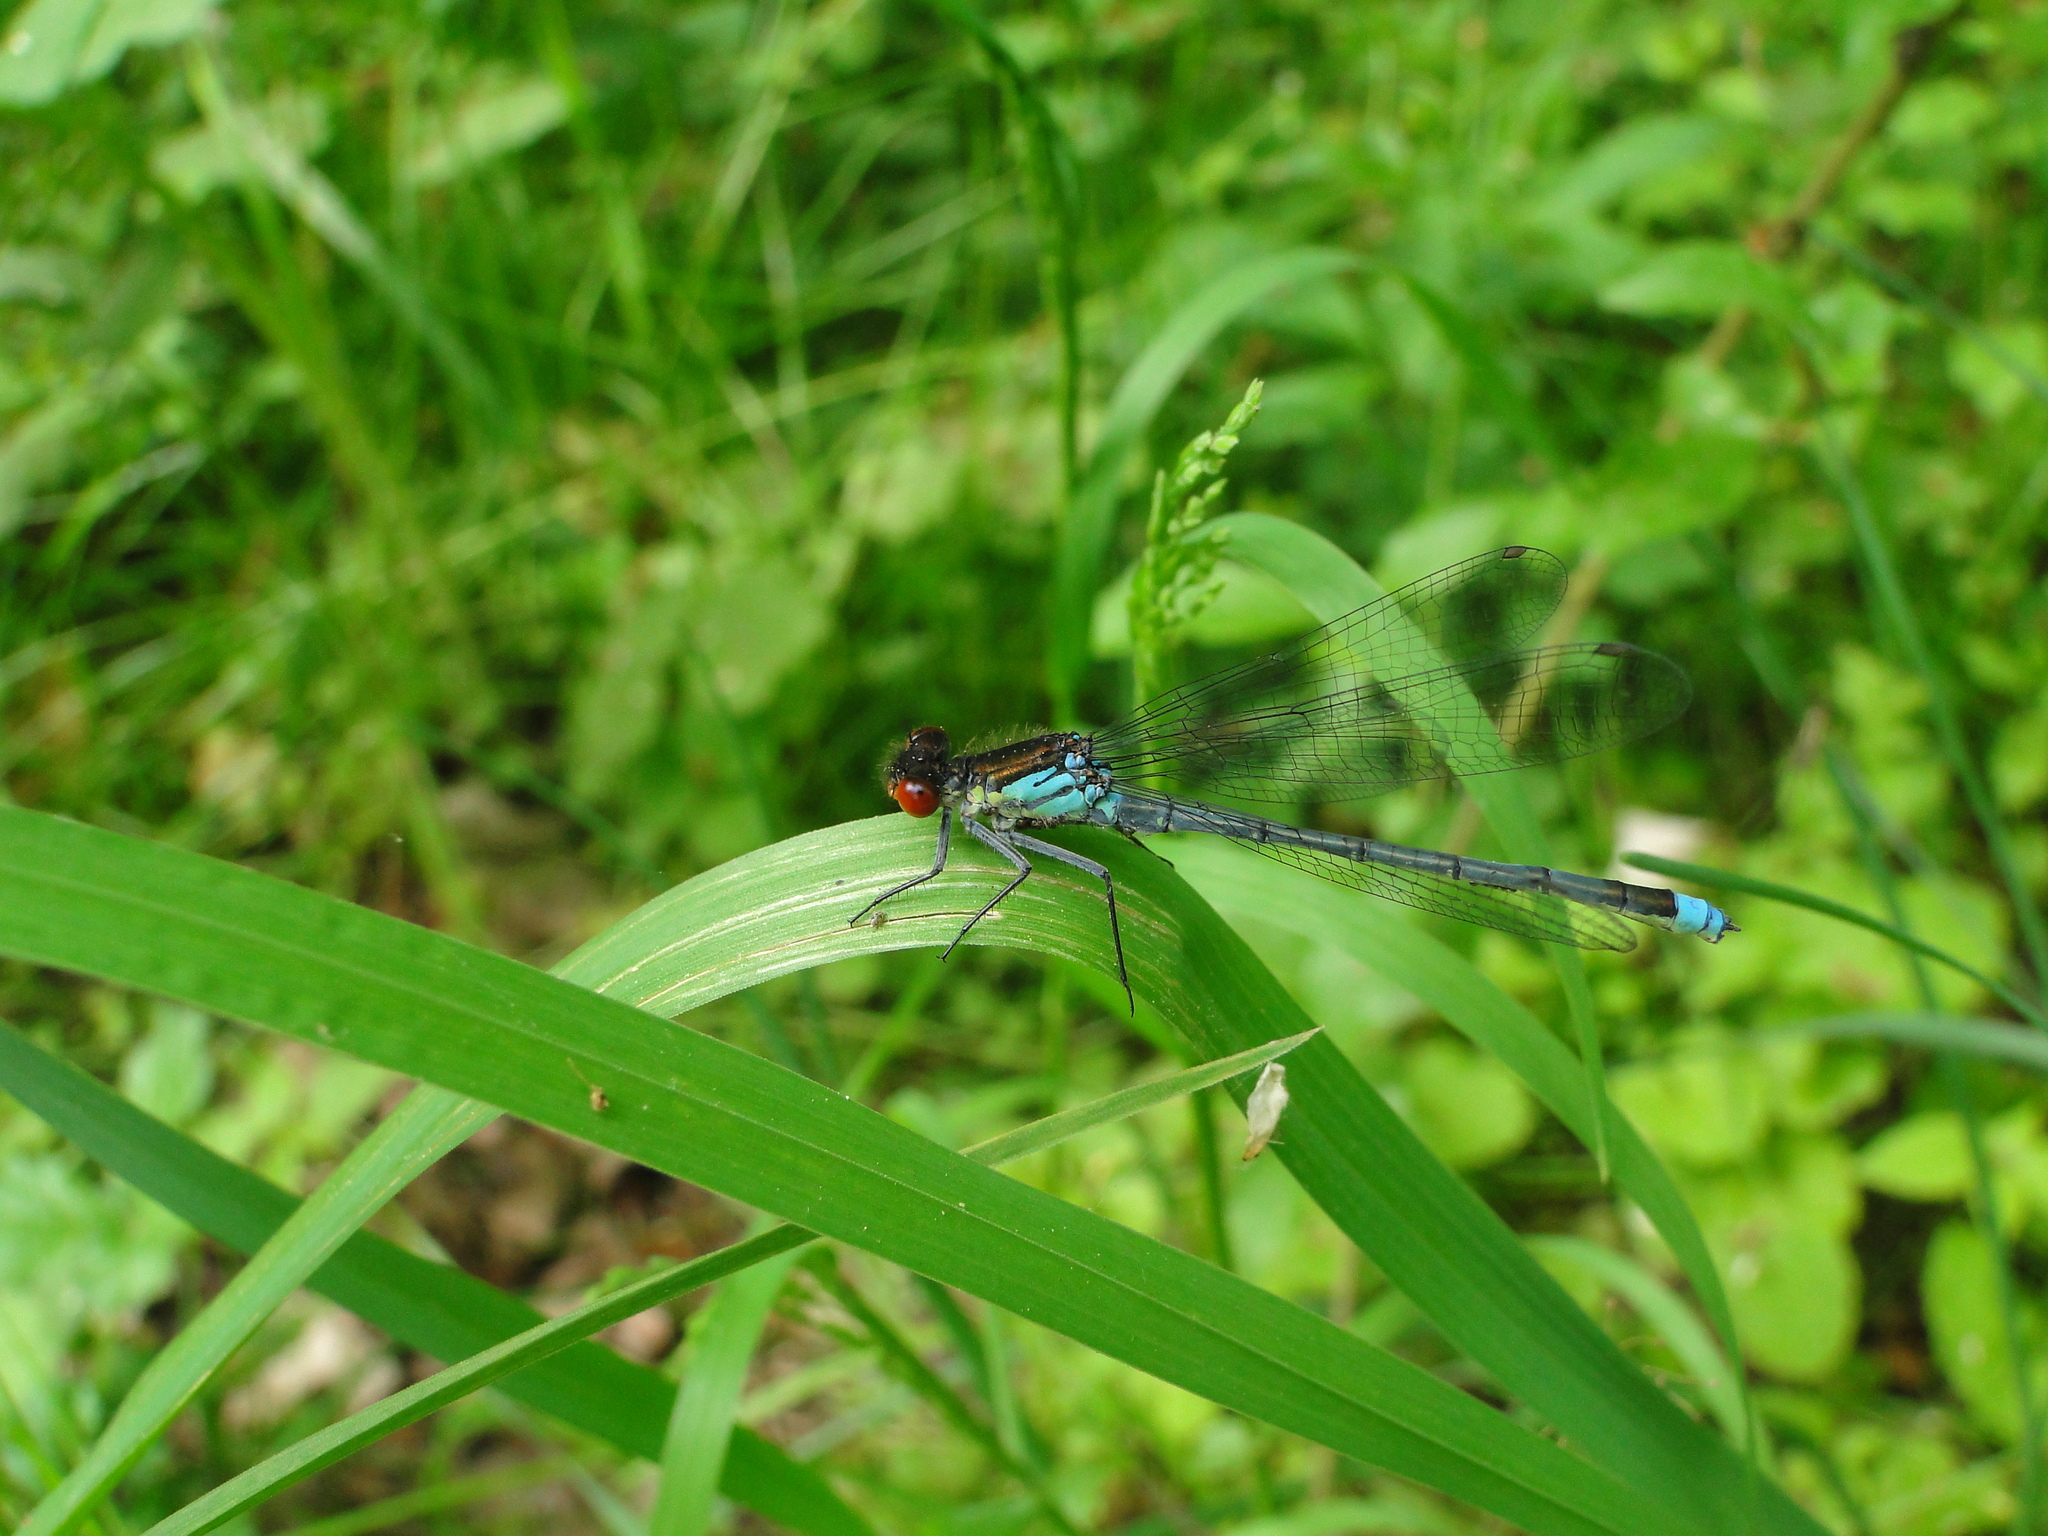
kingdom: Animalia
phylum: Arthropoda
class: Insecta
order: Odonata
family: Coenagrionidae
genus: Erythromma
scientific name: Erythromma najas
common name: Red-eyed damselfly
